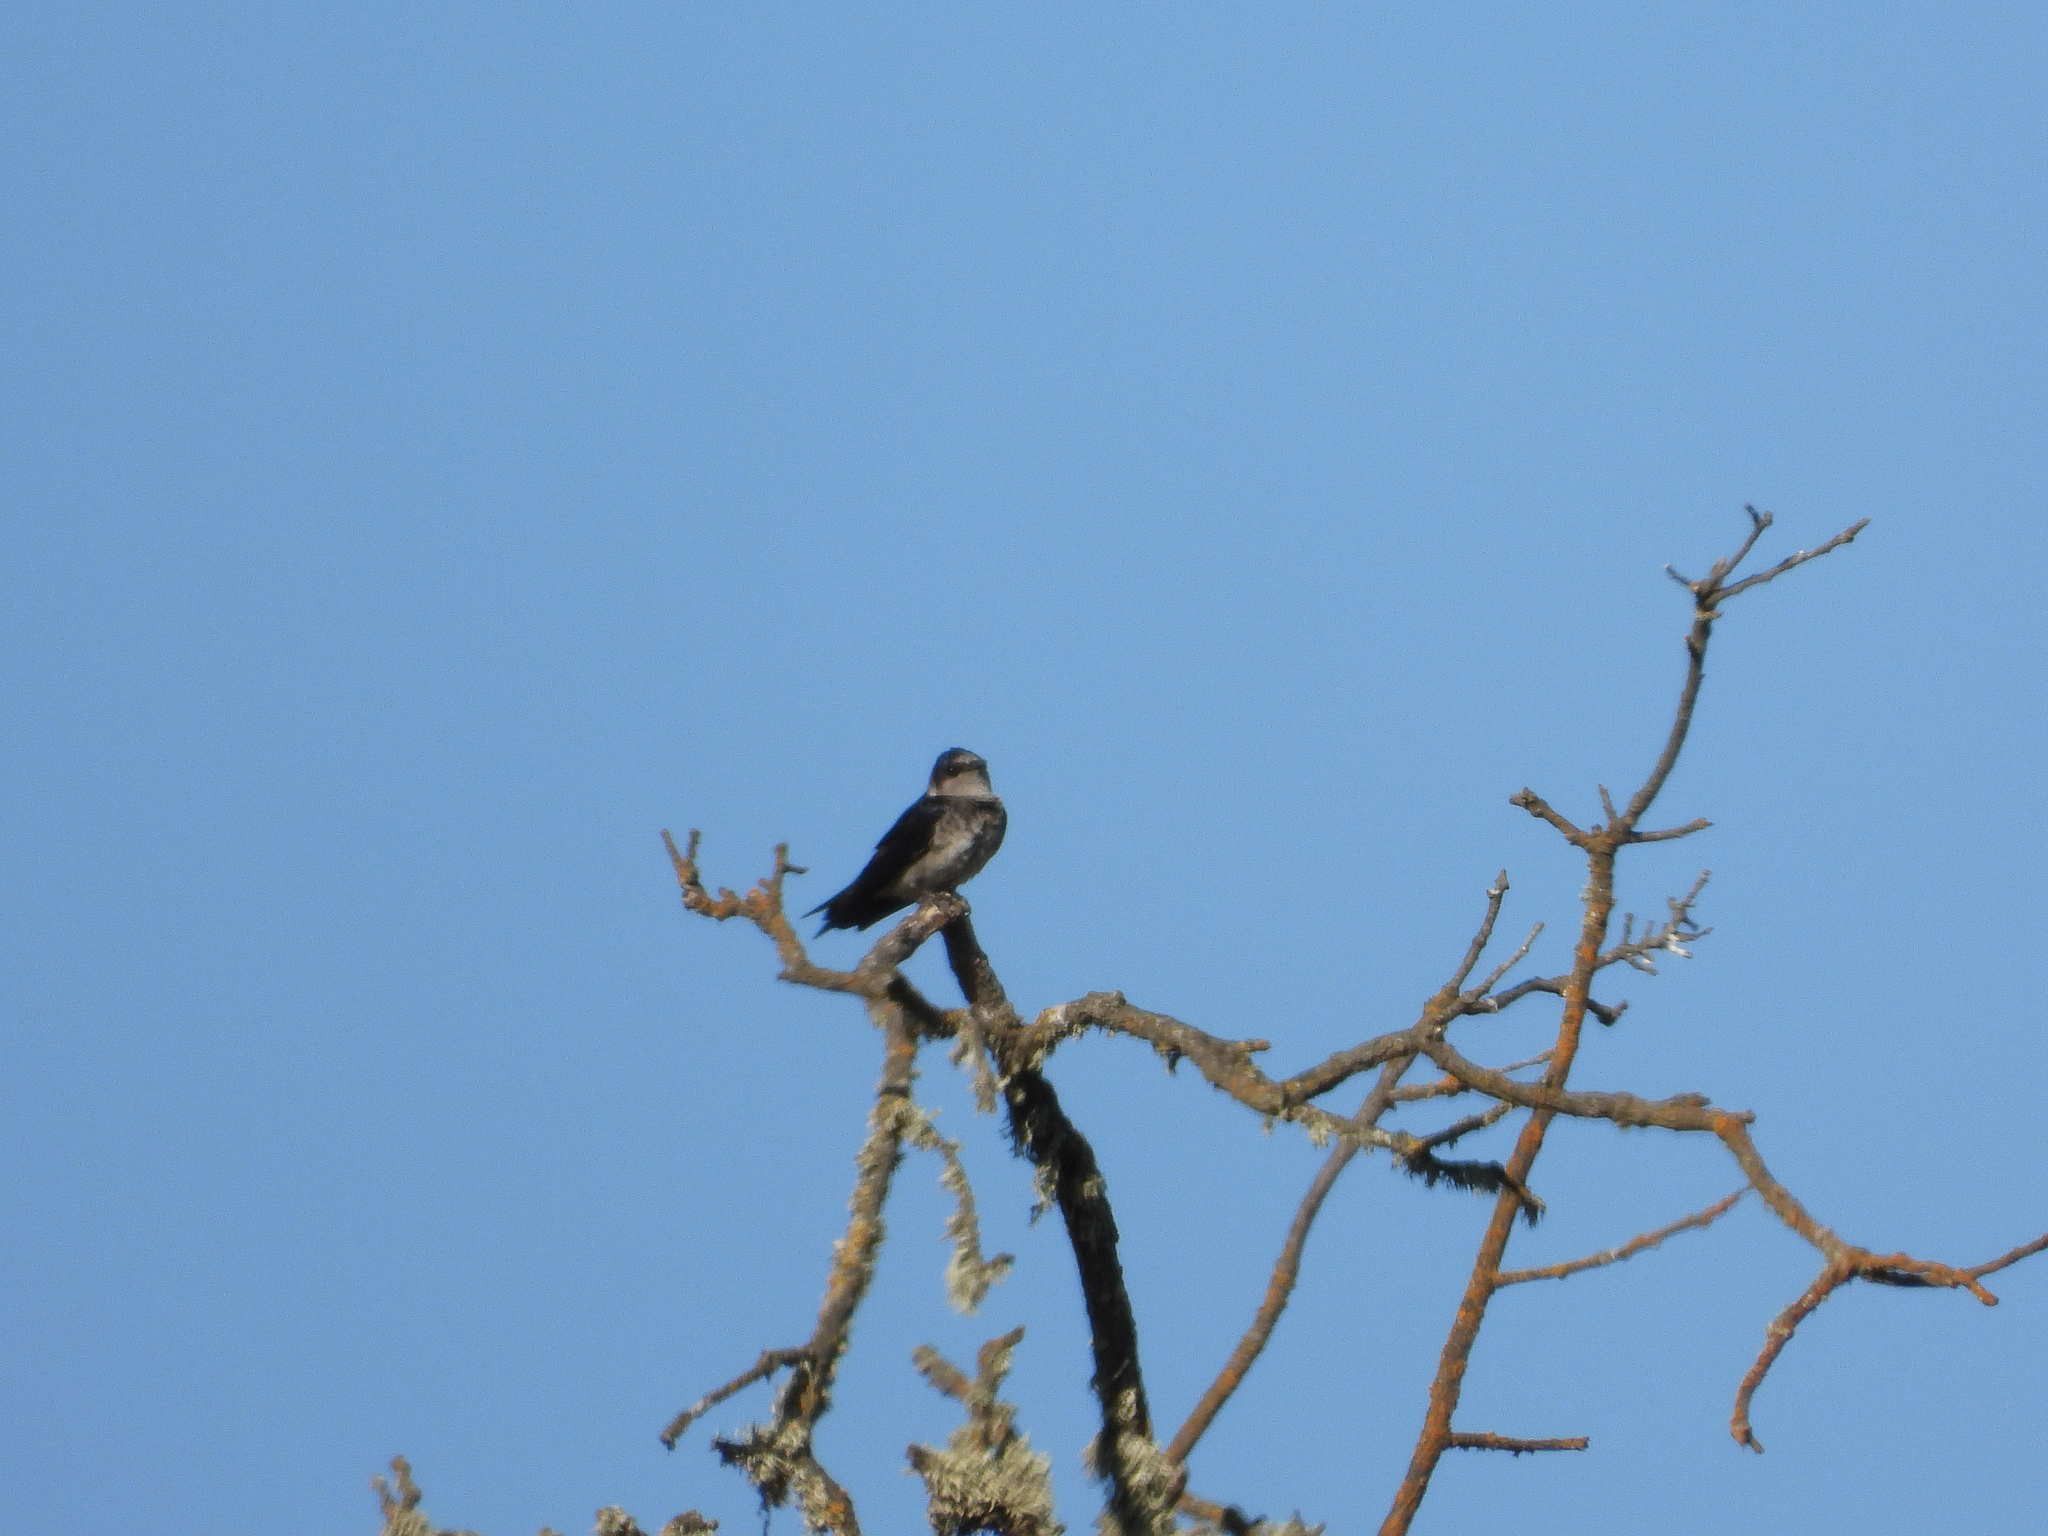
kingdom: Animalia
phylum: Chordata
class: Aves
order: Passeriformes
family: Hirundinidae
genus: Progne
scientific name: Progne subis
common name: Purple martin
